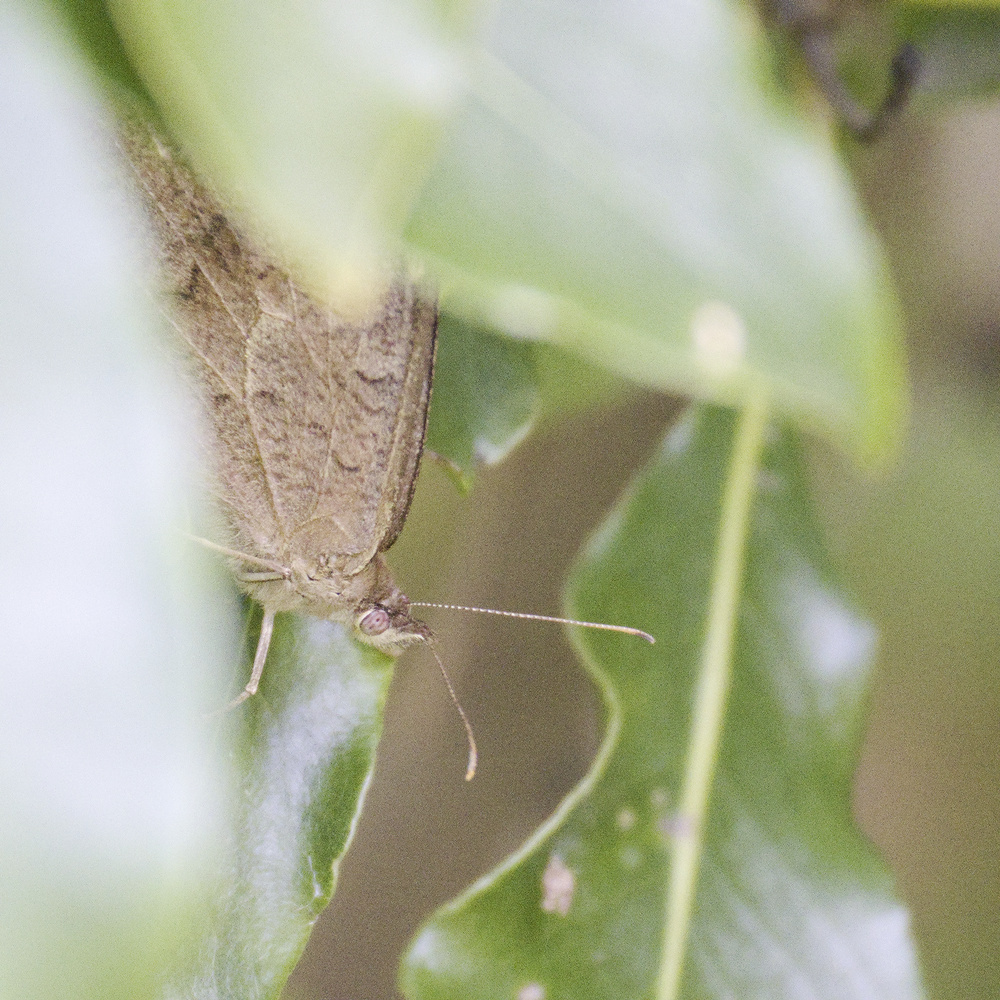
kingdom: Animalia
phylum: Arthropoda
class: Insecta
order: Lepidoptera
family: Nymphalidae
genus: Heteronympha
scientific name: Heteronympha merope
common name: Common brown
